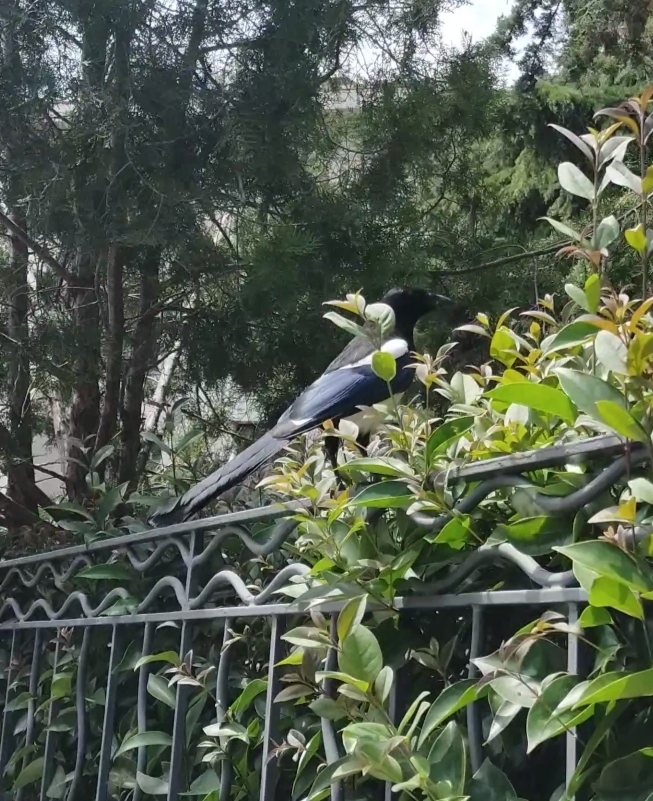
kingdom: Animalia
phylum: Chordata
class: Aves
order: Passeriformes
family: Corvidae
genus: Pica
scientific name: Pica pica
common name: Eurasian magpie
